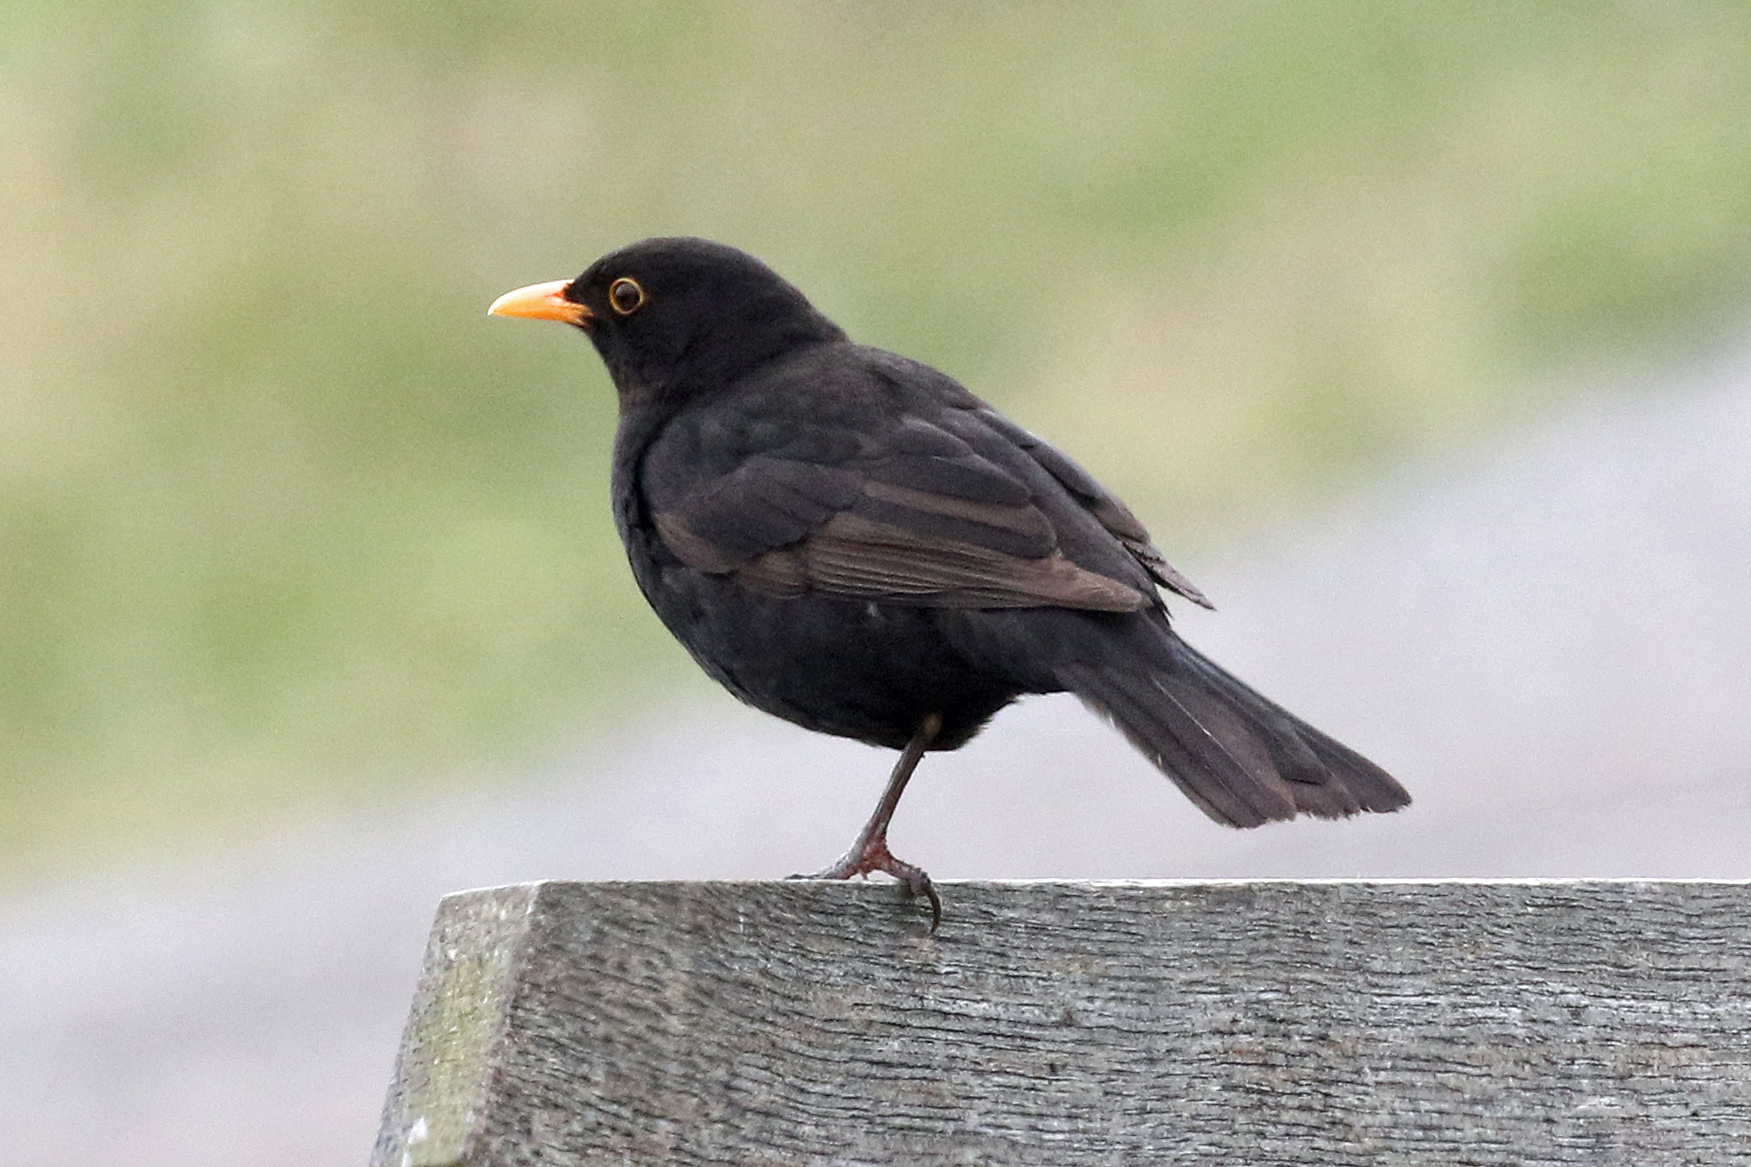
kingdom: Animalia
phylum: Chordata
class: Aves
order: Passeriformes
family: Turdidae
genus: Turdus
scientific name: Turdus merula
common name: Common blackbird
